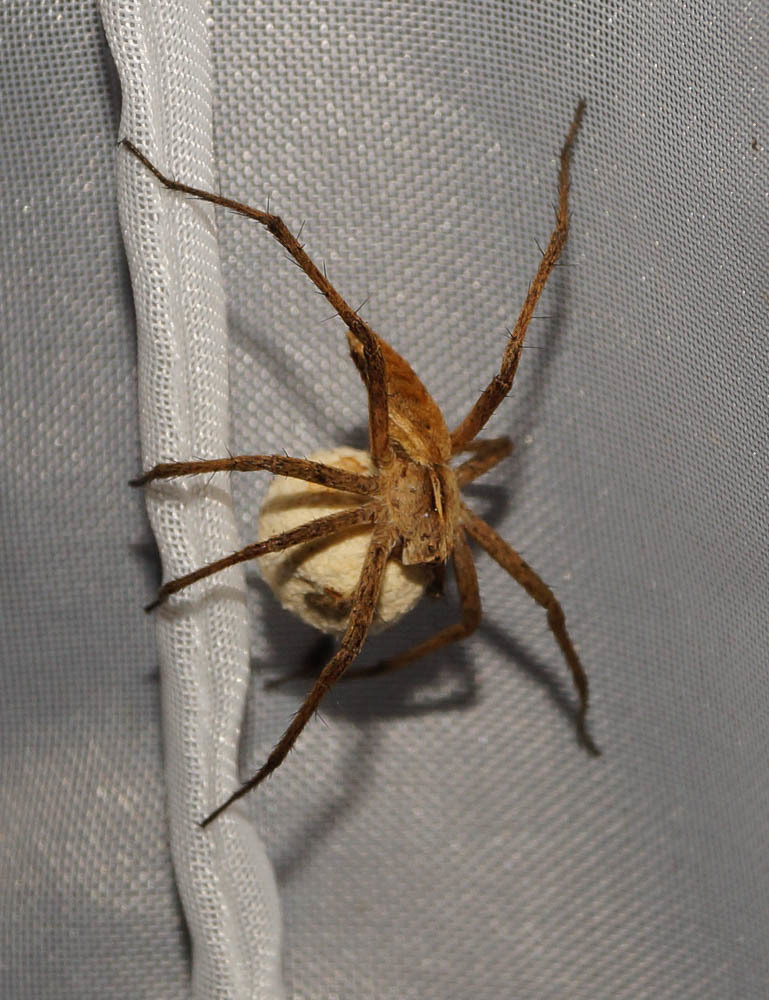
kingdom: Animalia
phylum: Arthropoda
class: Arachnida
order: Araneae
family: Pisauridae
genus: Pisaura
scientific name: Pisaura mirabilis
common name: Tent spider
